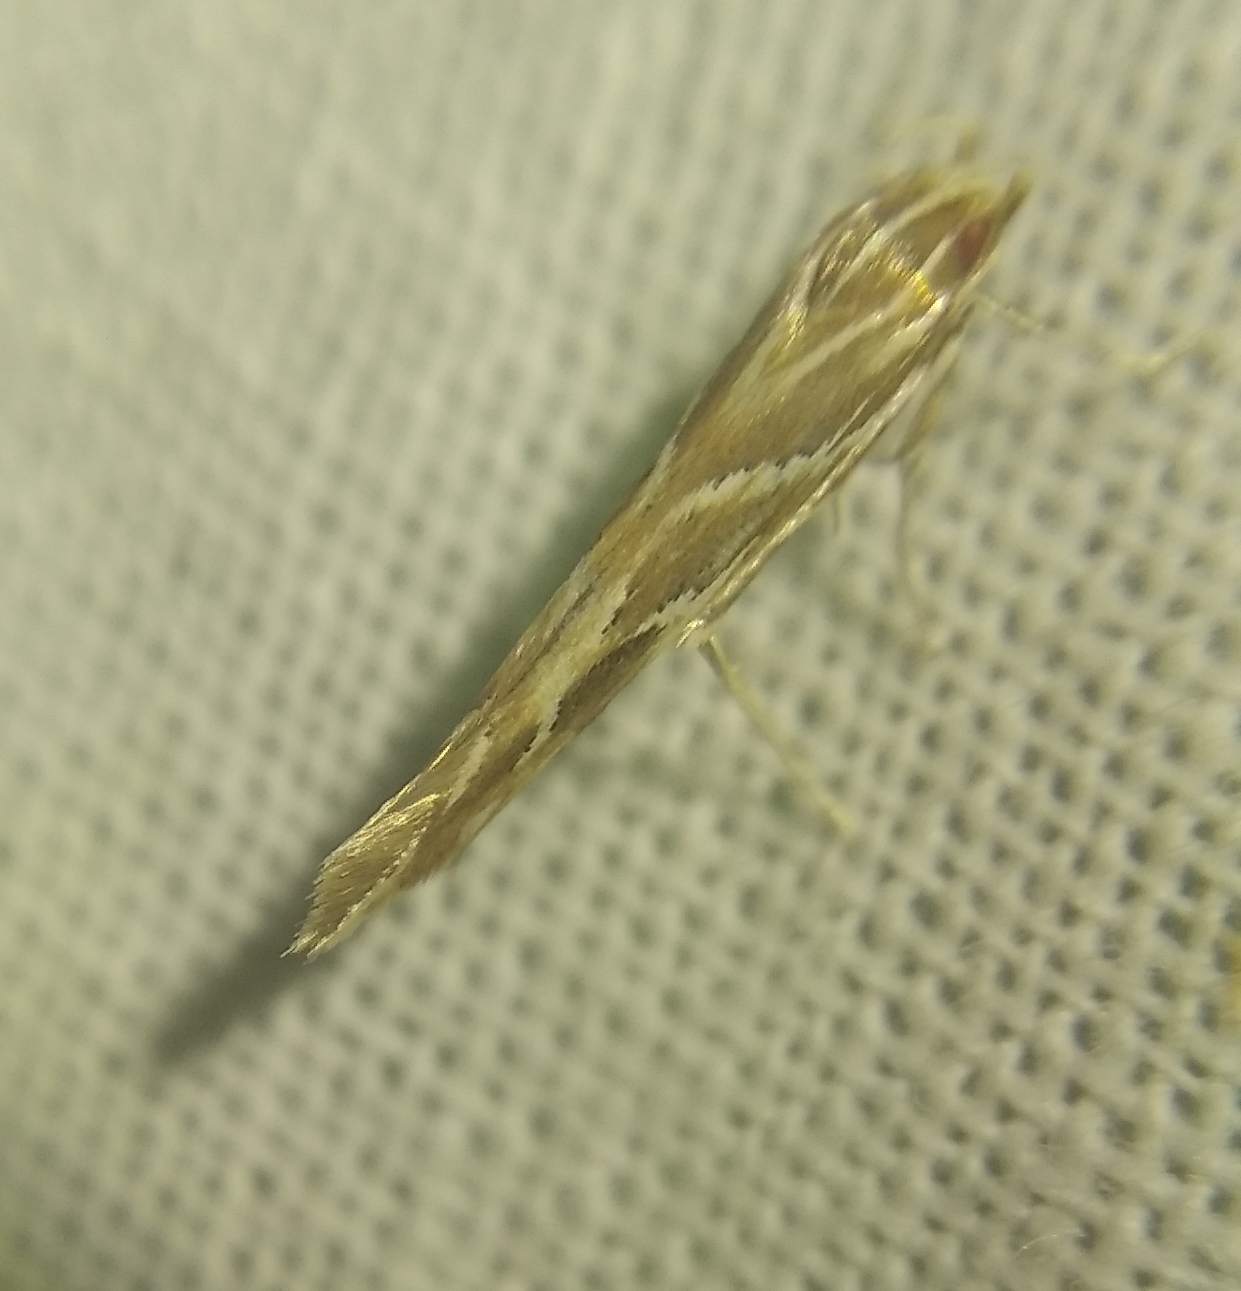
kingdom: Animalia
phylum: Arthropoda
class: Insecta
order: Lepidoptera
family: Cosmopterigidae
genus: Pyroderces
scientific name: Pyroderces argyrogrammos
